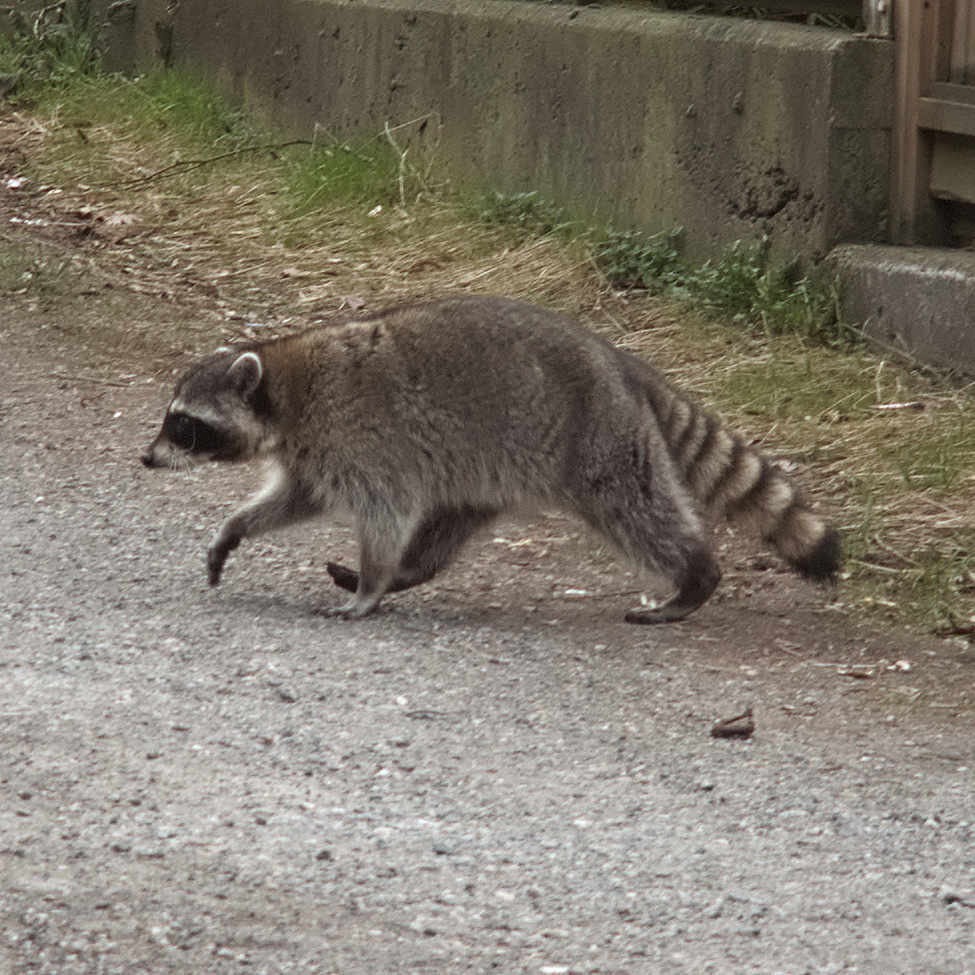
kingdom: Animalia
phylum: Chordata
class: Mammalia
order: Carnivora
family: Procyonidae
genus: Procyon
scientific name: Procyon lotor
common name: Raccoon
